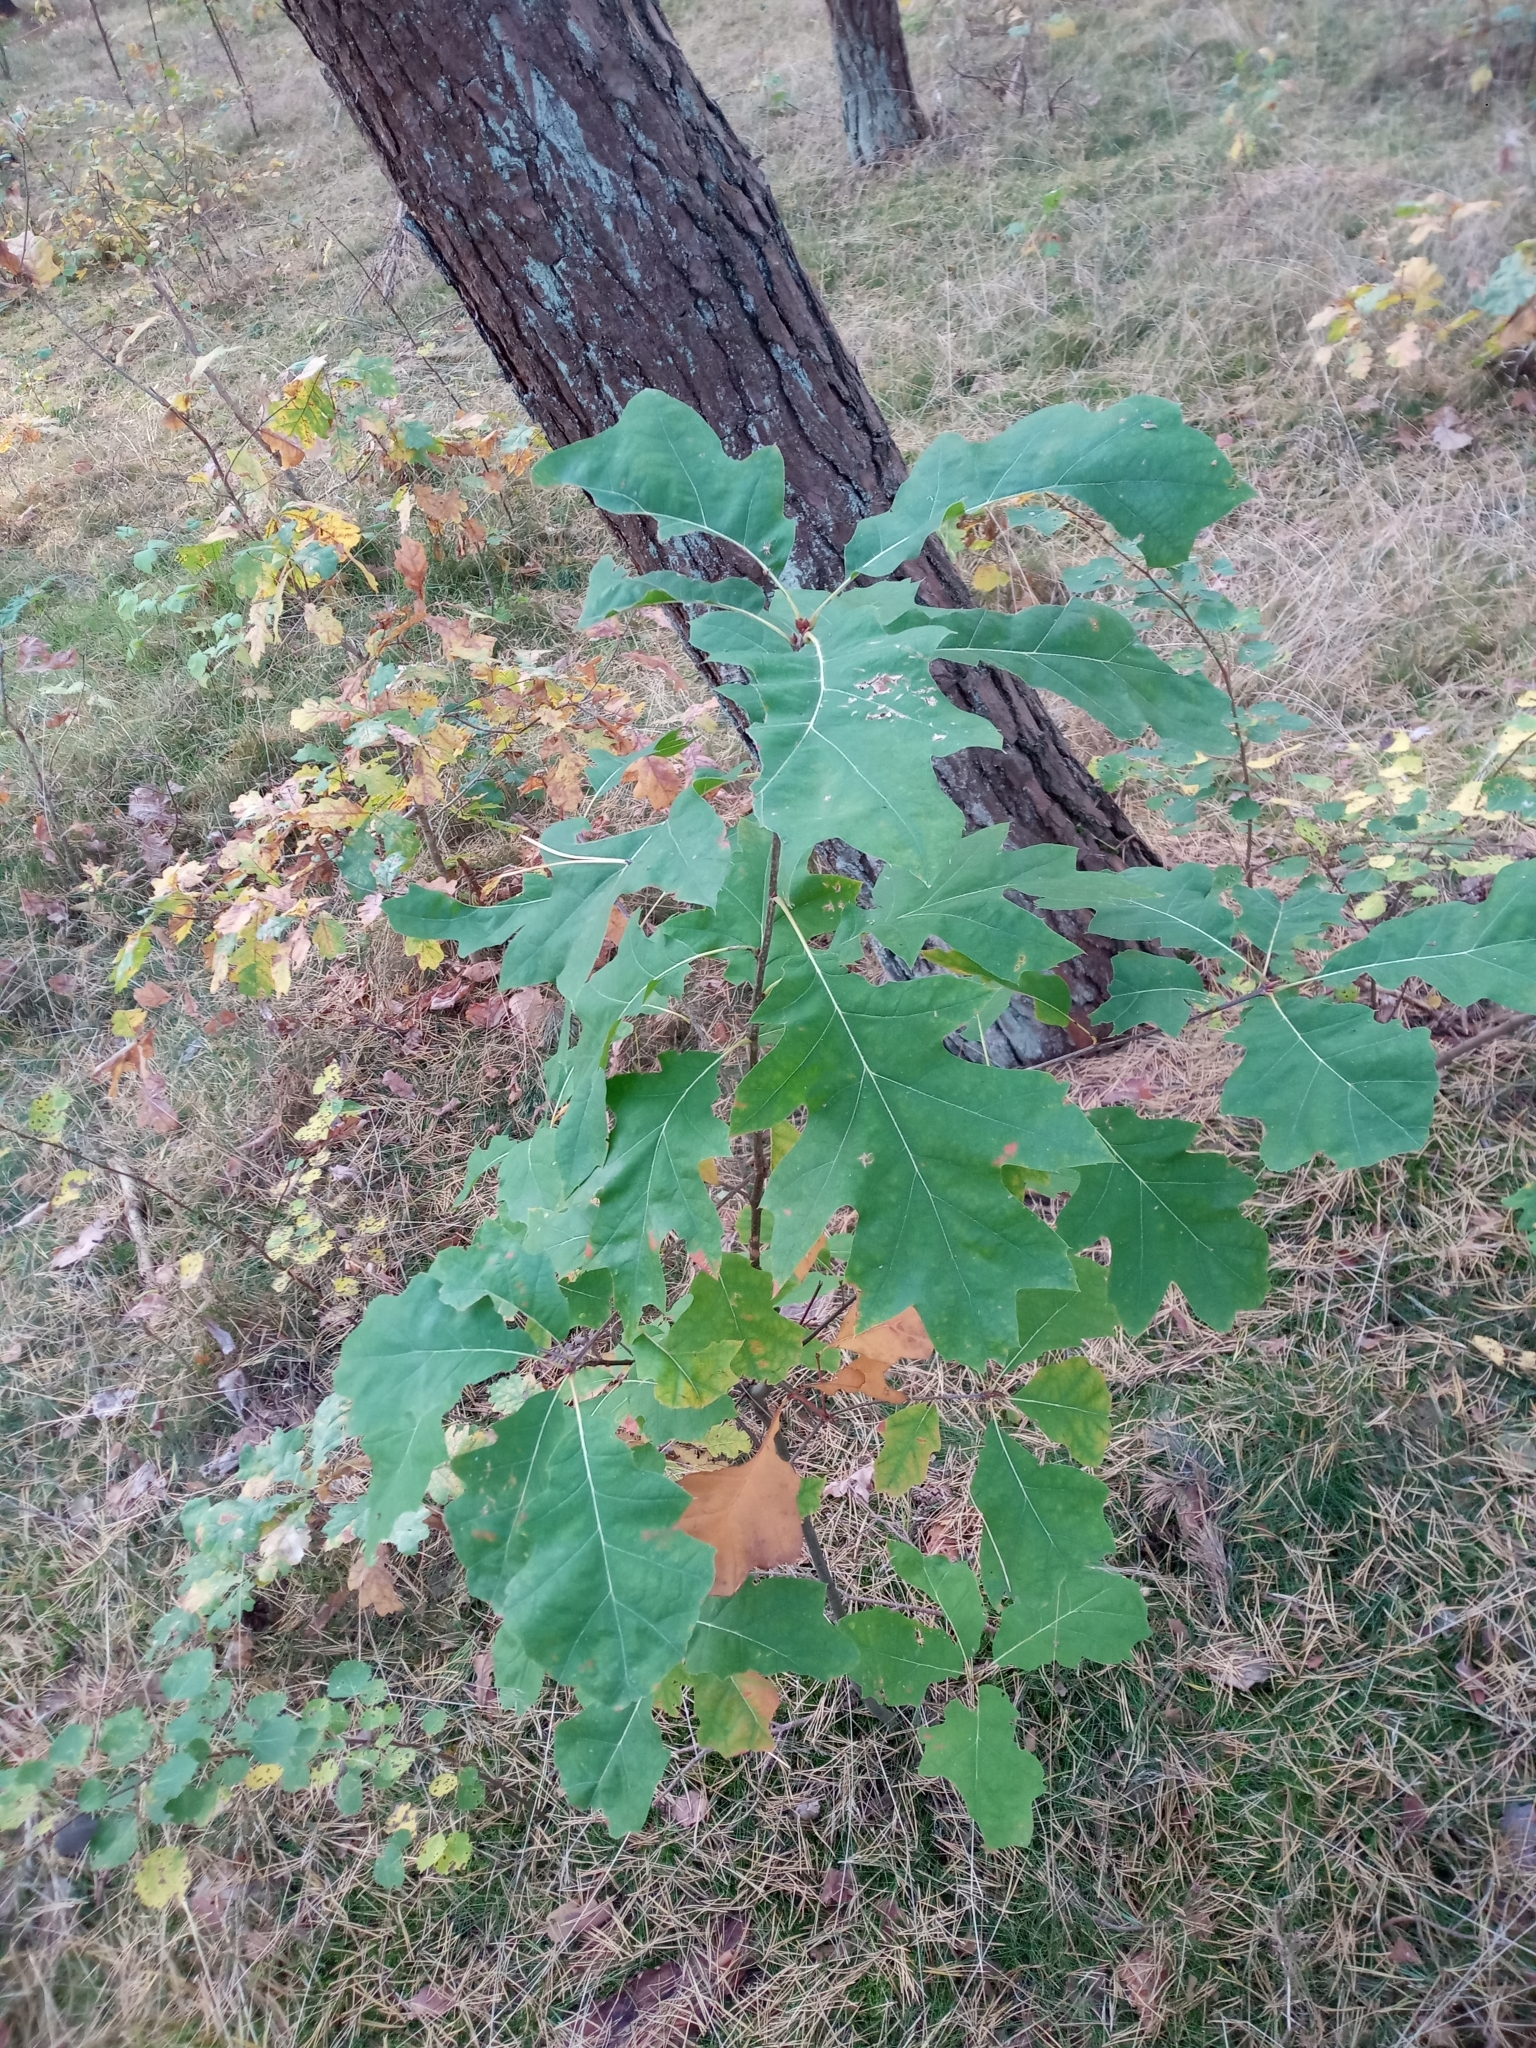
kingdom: Plantae
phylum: Tracheophyta
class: Magnoliopsida
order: Fagales
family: Fagaceae
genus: Quercus
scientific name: Quercus rubra
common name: Red oak
